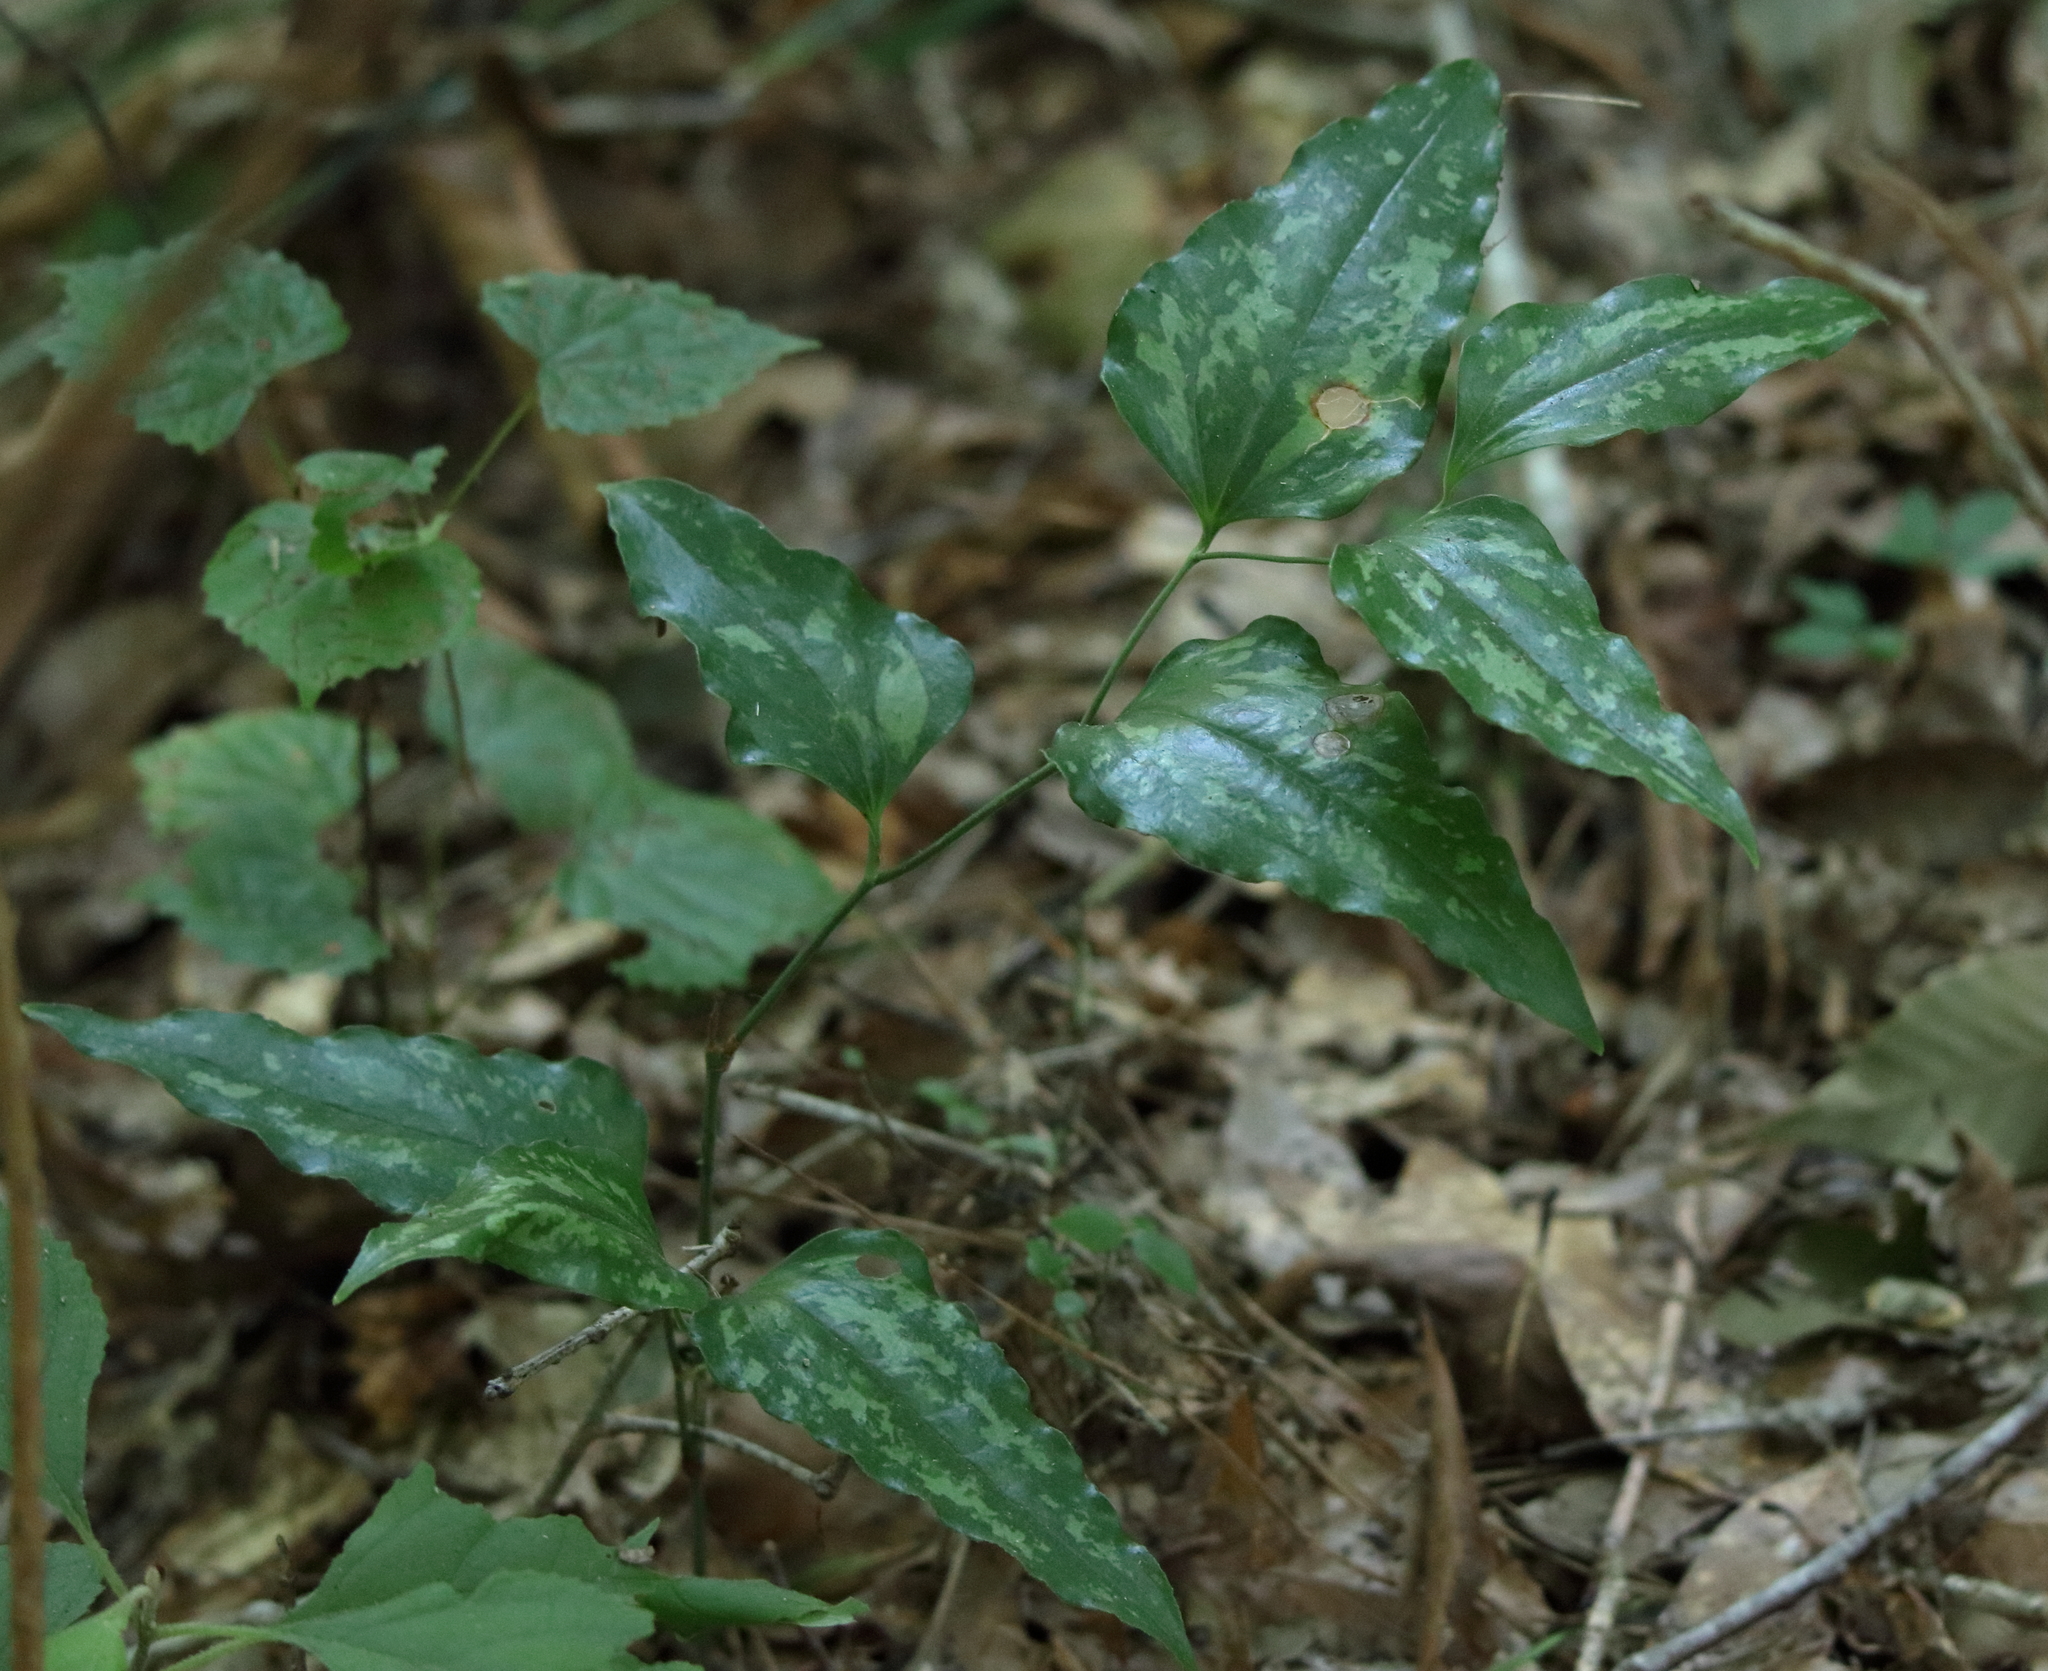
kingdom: Plantae
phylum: Tracheophyta
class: Liliopsida
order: Liliales
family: Smilacaceae
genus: Smilax
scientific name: Smilax maritima
